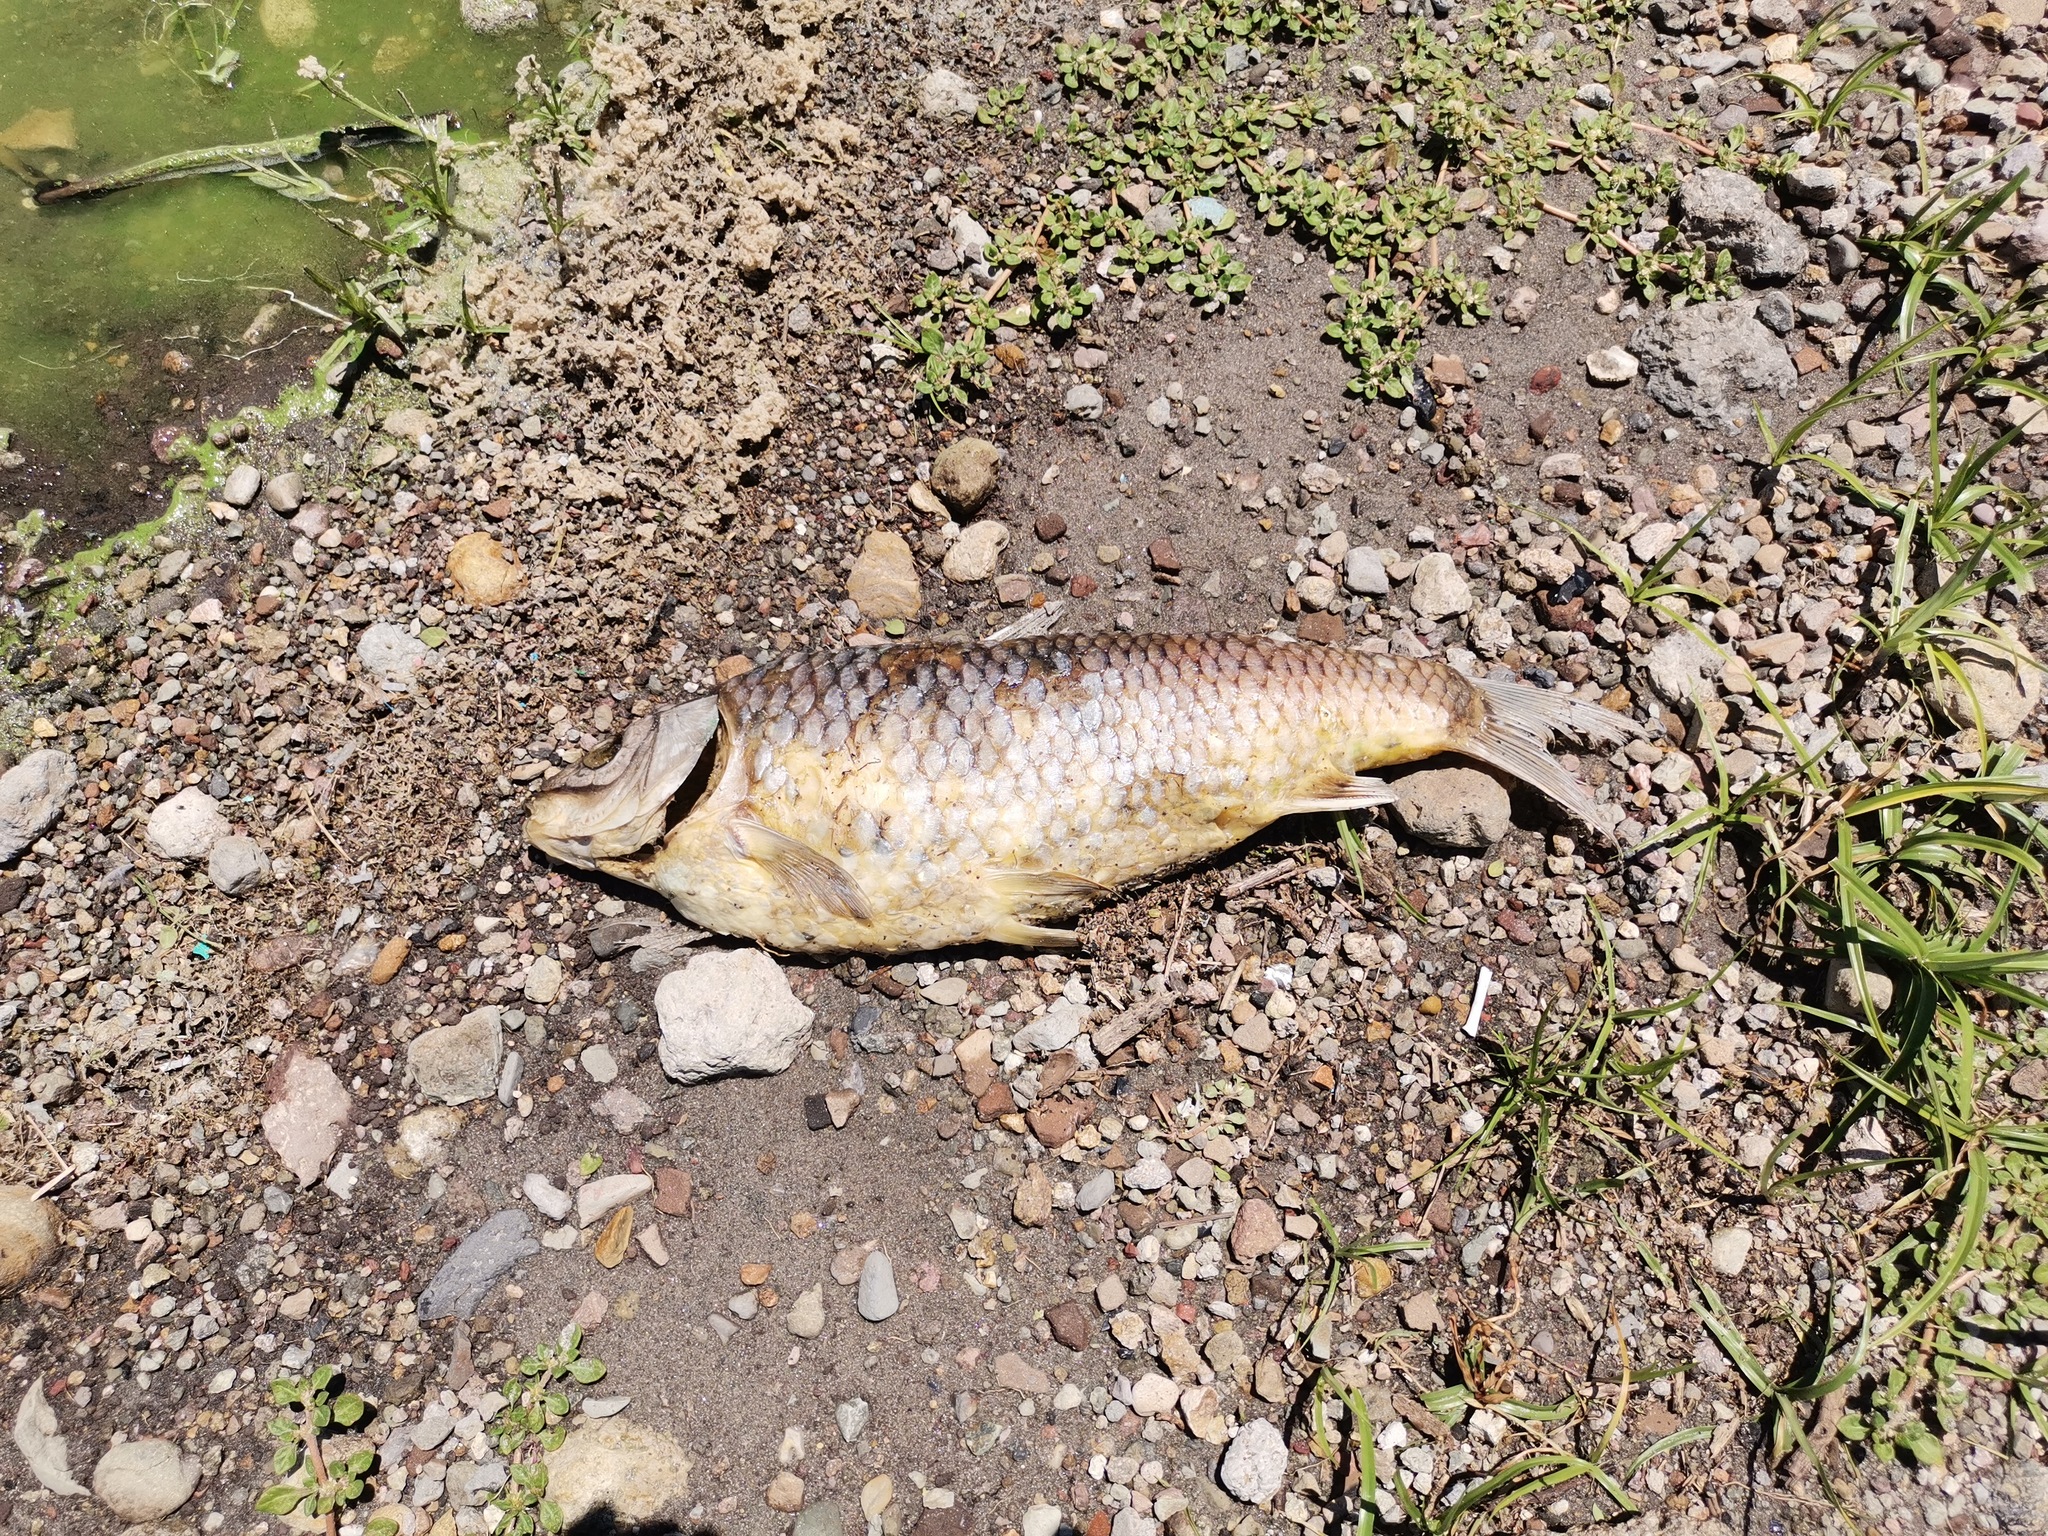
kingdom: Animalia
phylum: Chordata
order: Cypriniformes
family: Cyprinidae
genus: Cyprinus
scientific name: Cyprinus carpio
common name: Common carp
